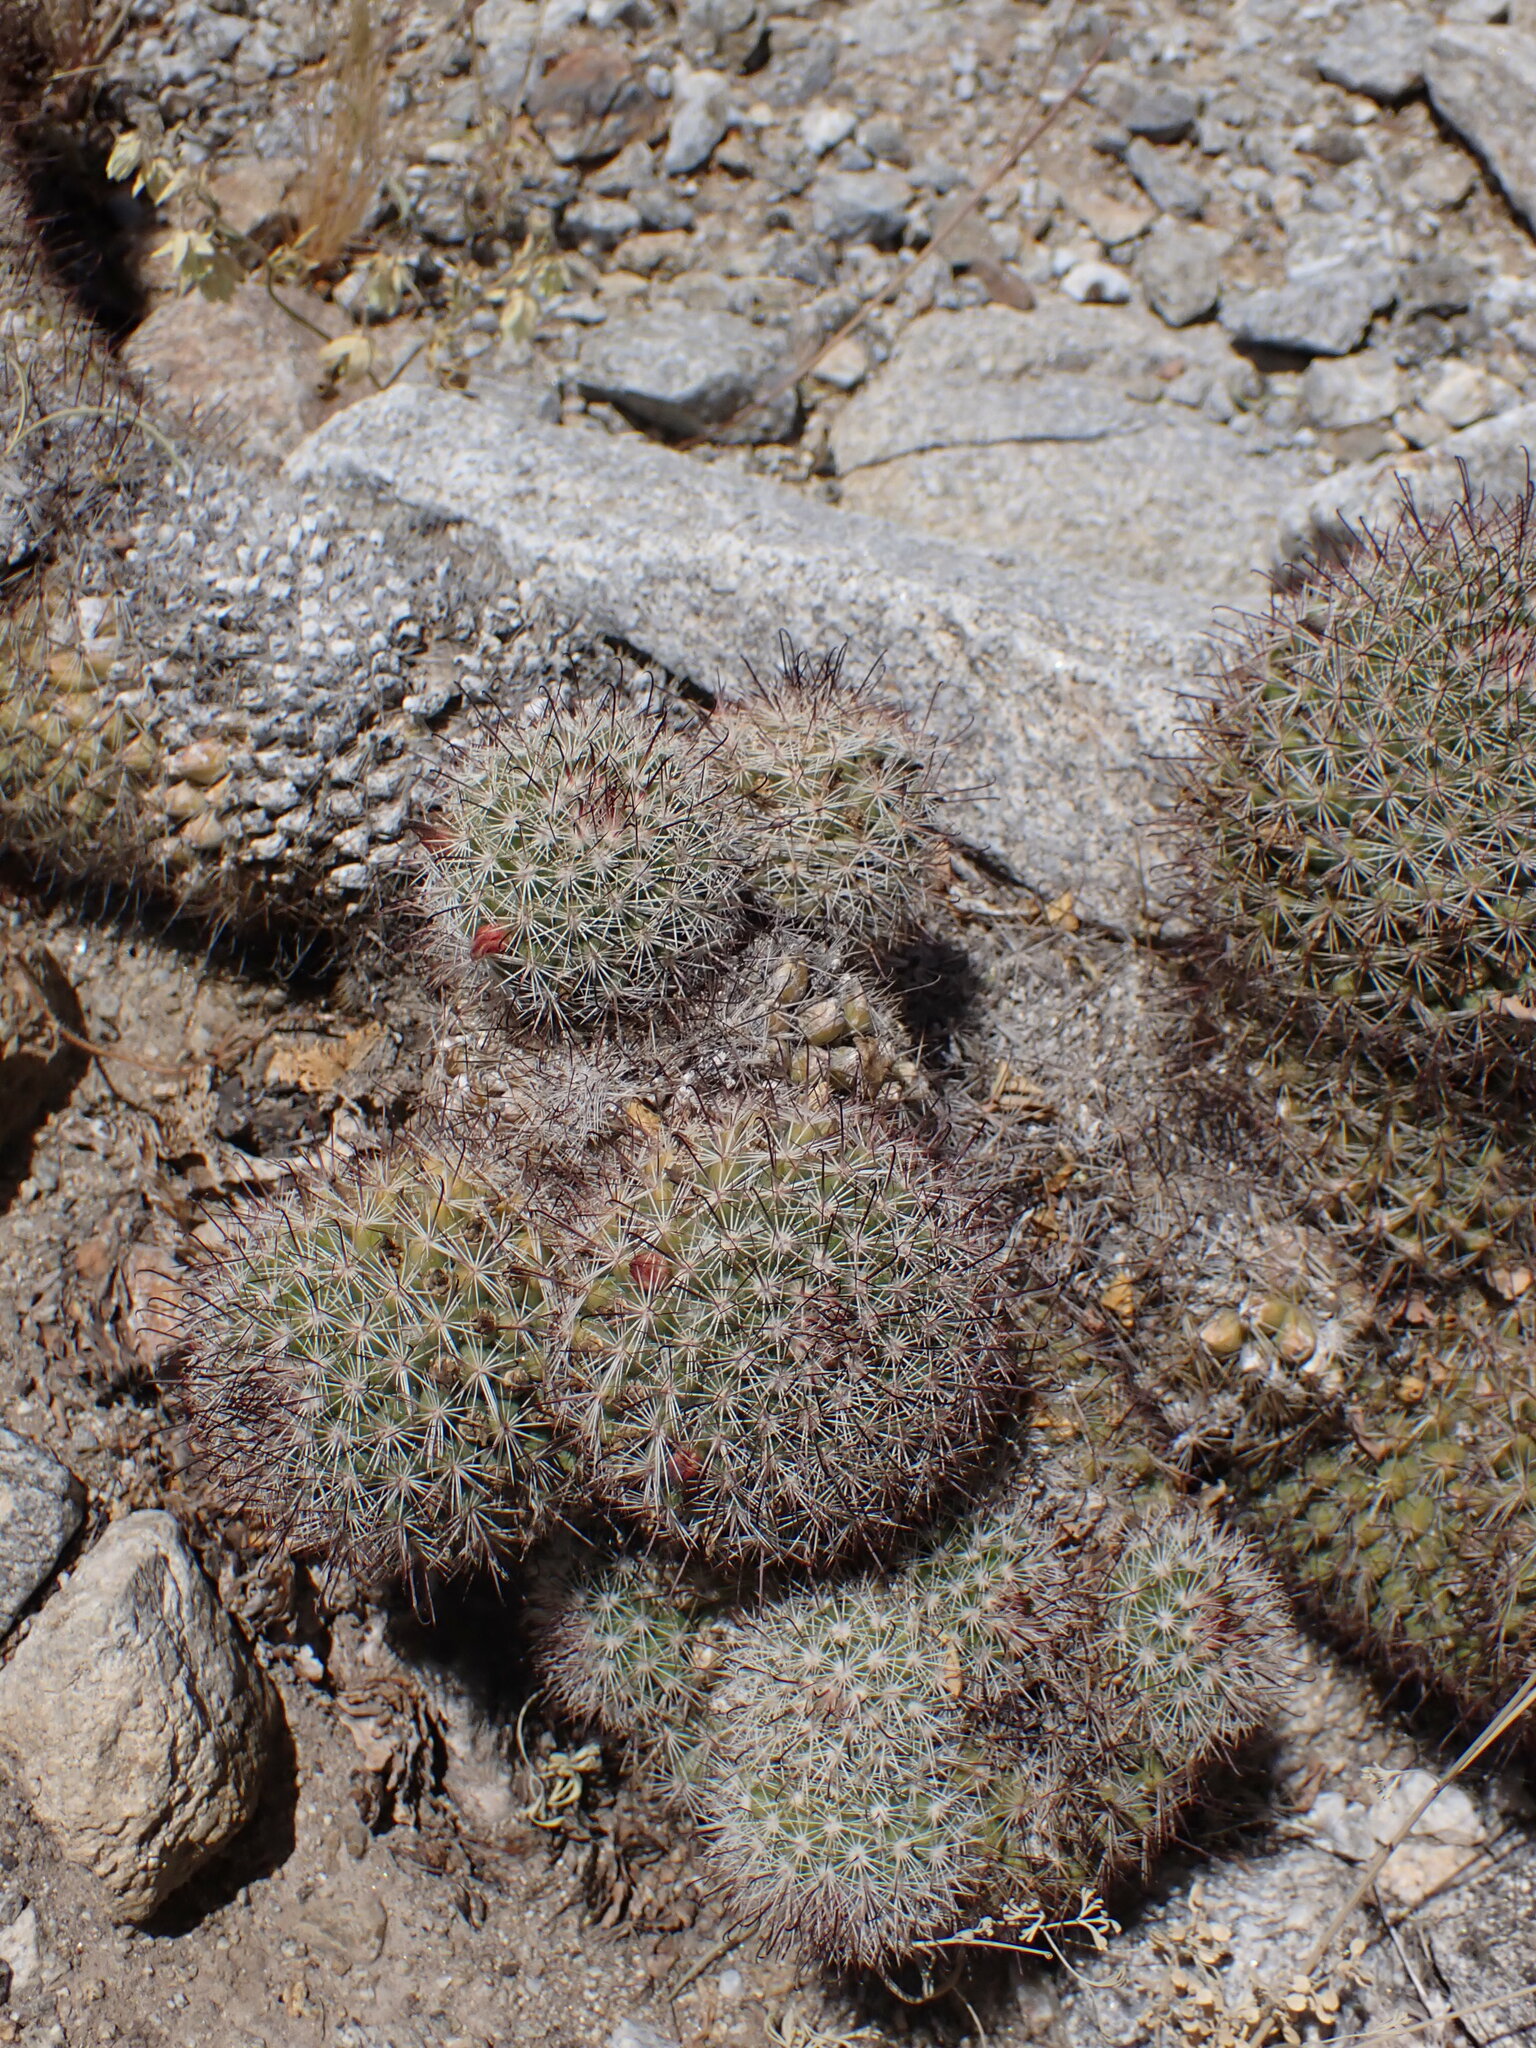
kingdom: Plantae
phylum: Tracheophyta
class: Magnoliopsida
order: Caryophyllales
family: Cactaceae
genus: Cochemiea
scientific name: Cochemiea dioica
